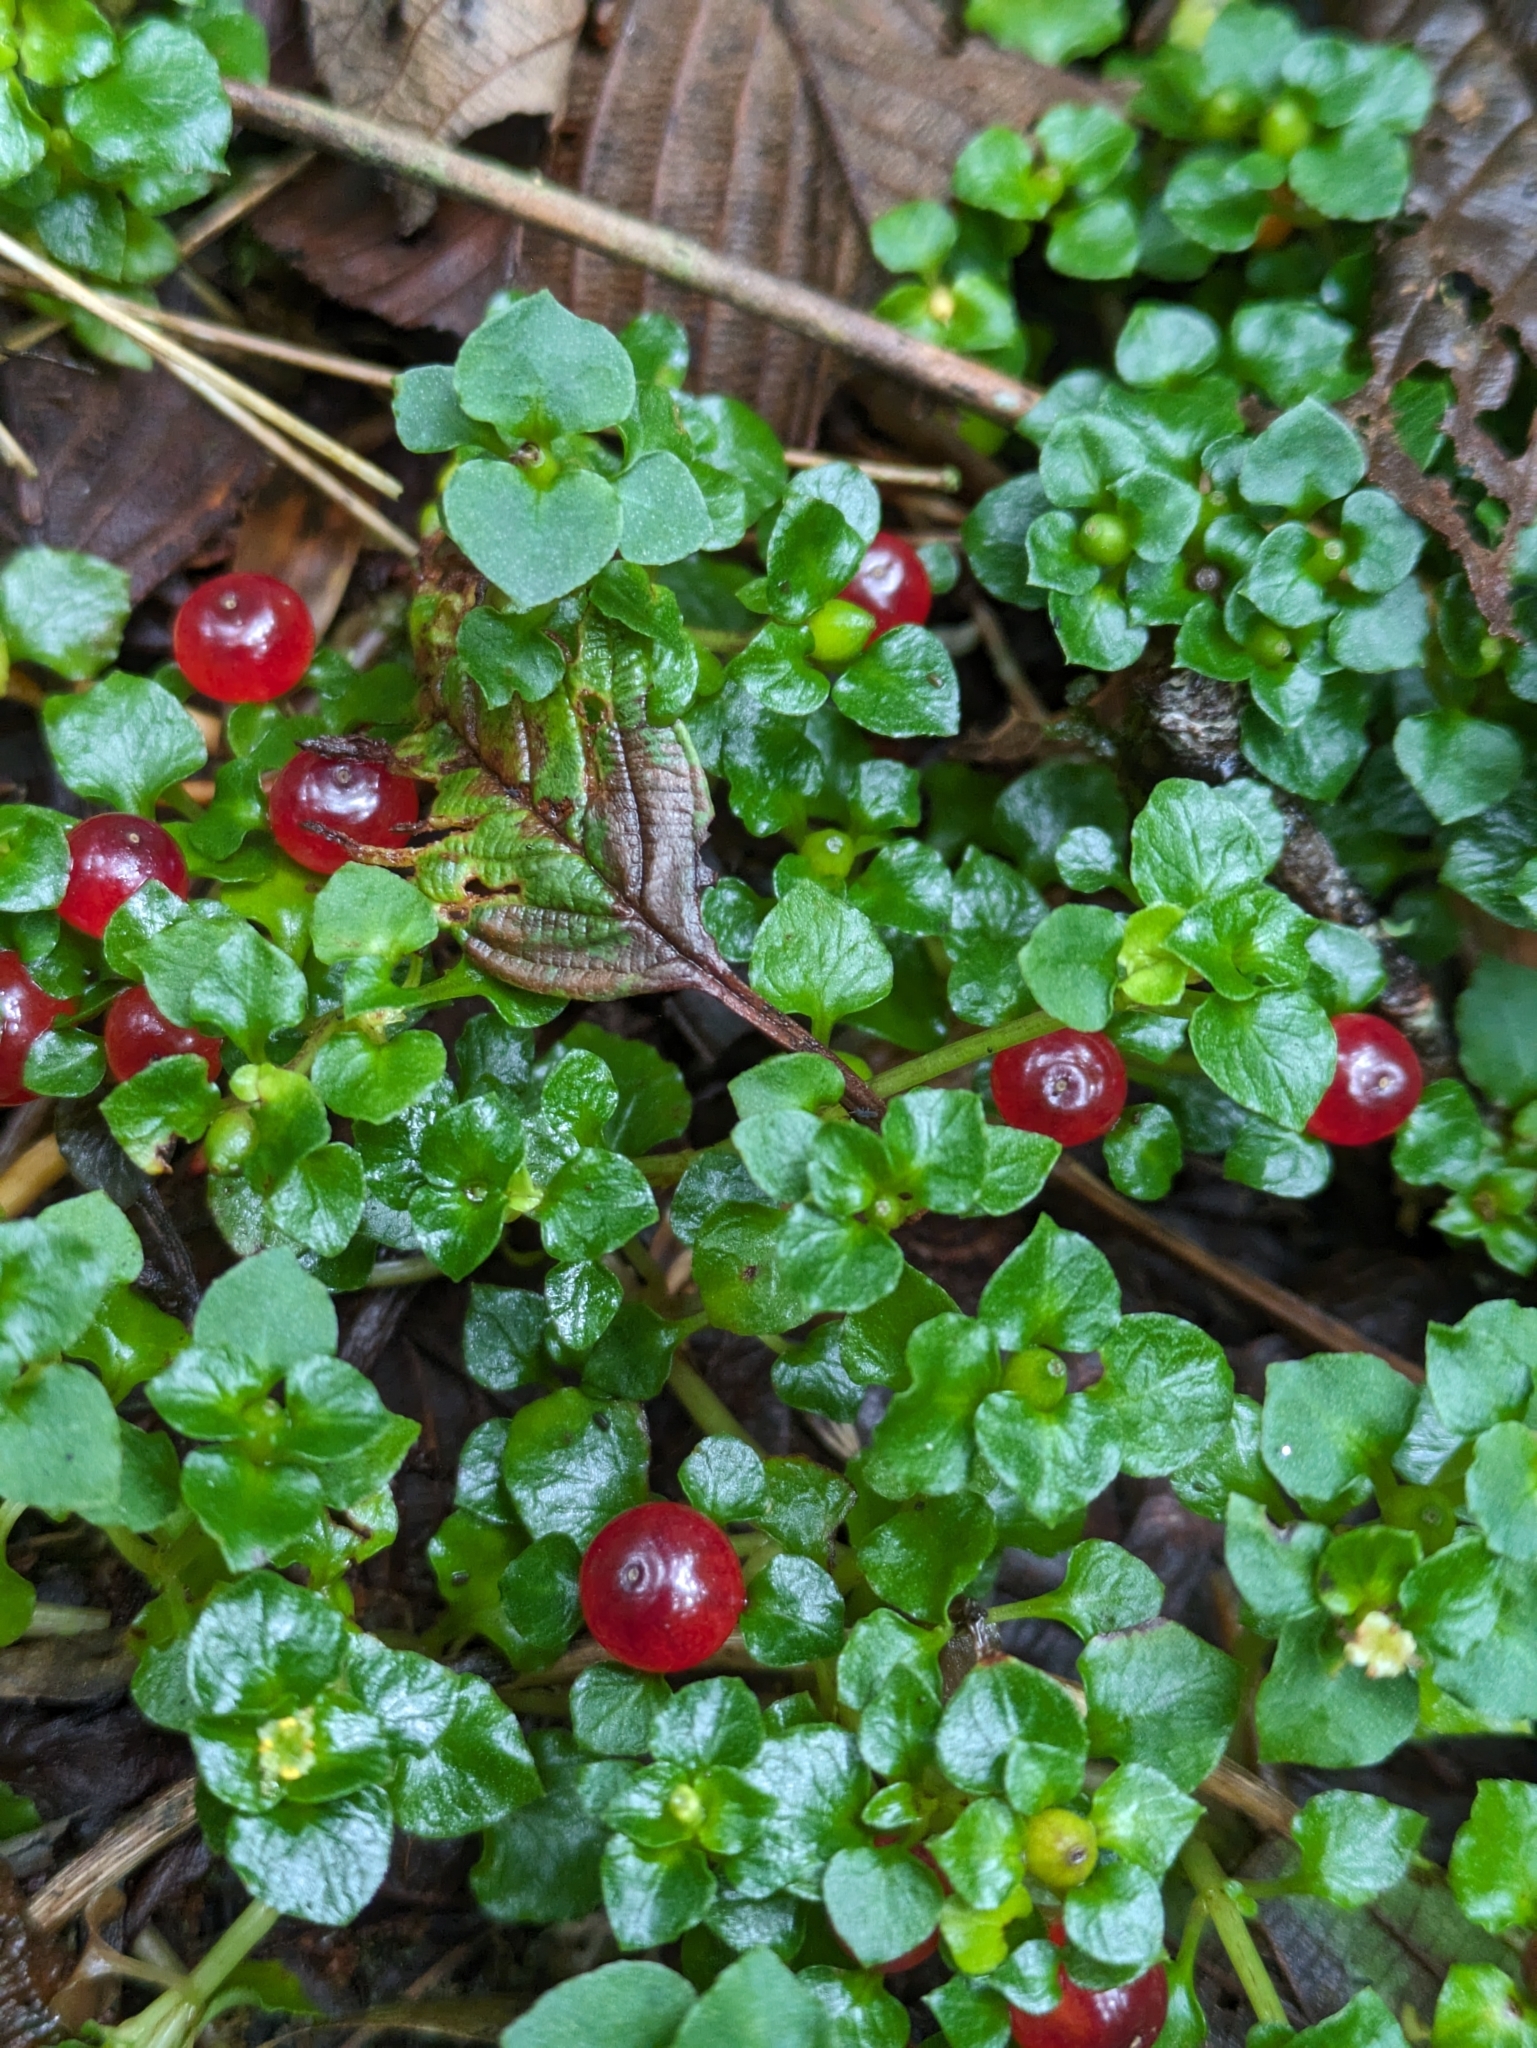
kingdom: Plantae
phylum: Tracheophyta
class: Magnoliopsida
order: Gentianales
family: Rubiaceae
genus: Nertera
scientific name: Nertera granadensis
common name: Beadplant
